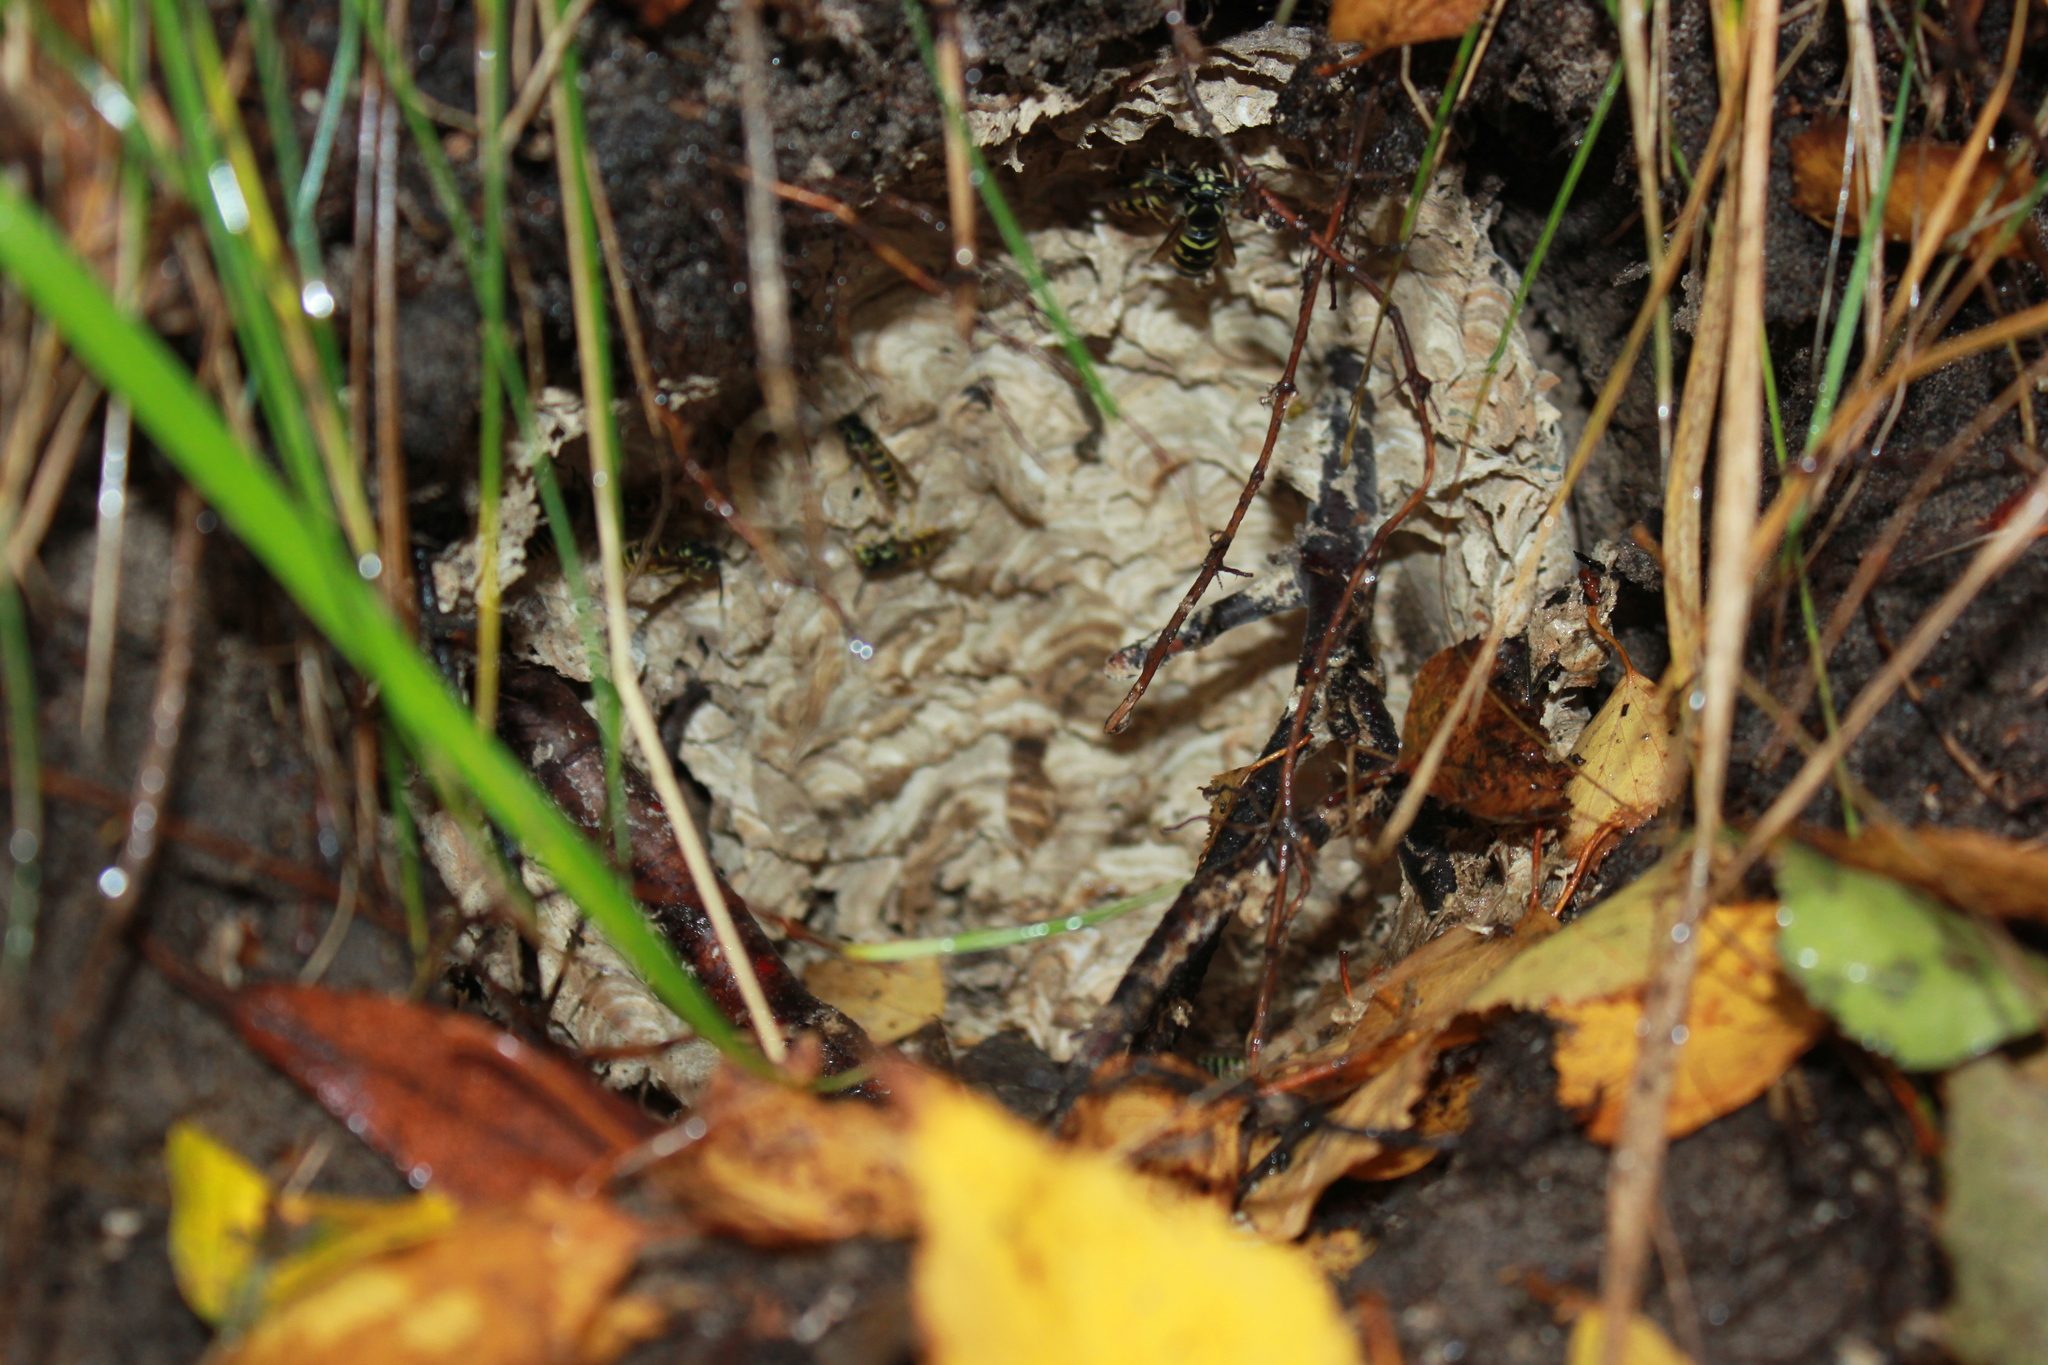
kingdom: Animalia
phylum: Arthropoda
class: Insecta
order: Hymenoptera
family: Vespidae
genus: Vespula
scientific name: Vespula vulgaris
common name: Common wasp
